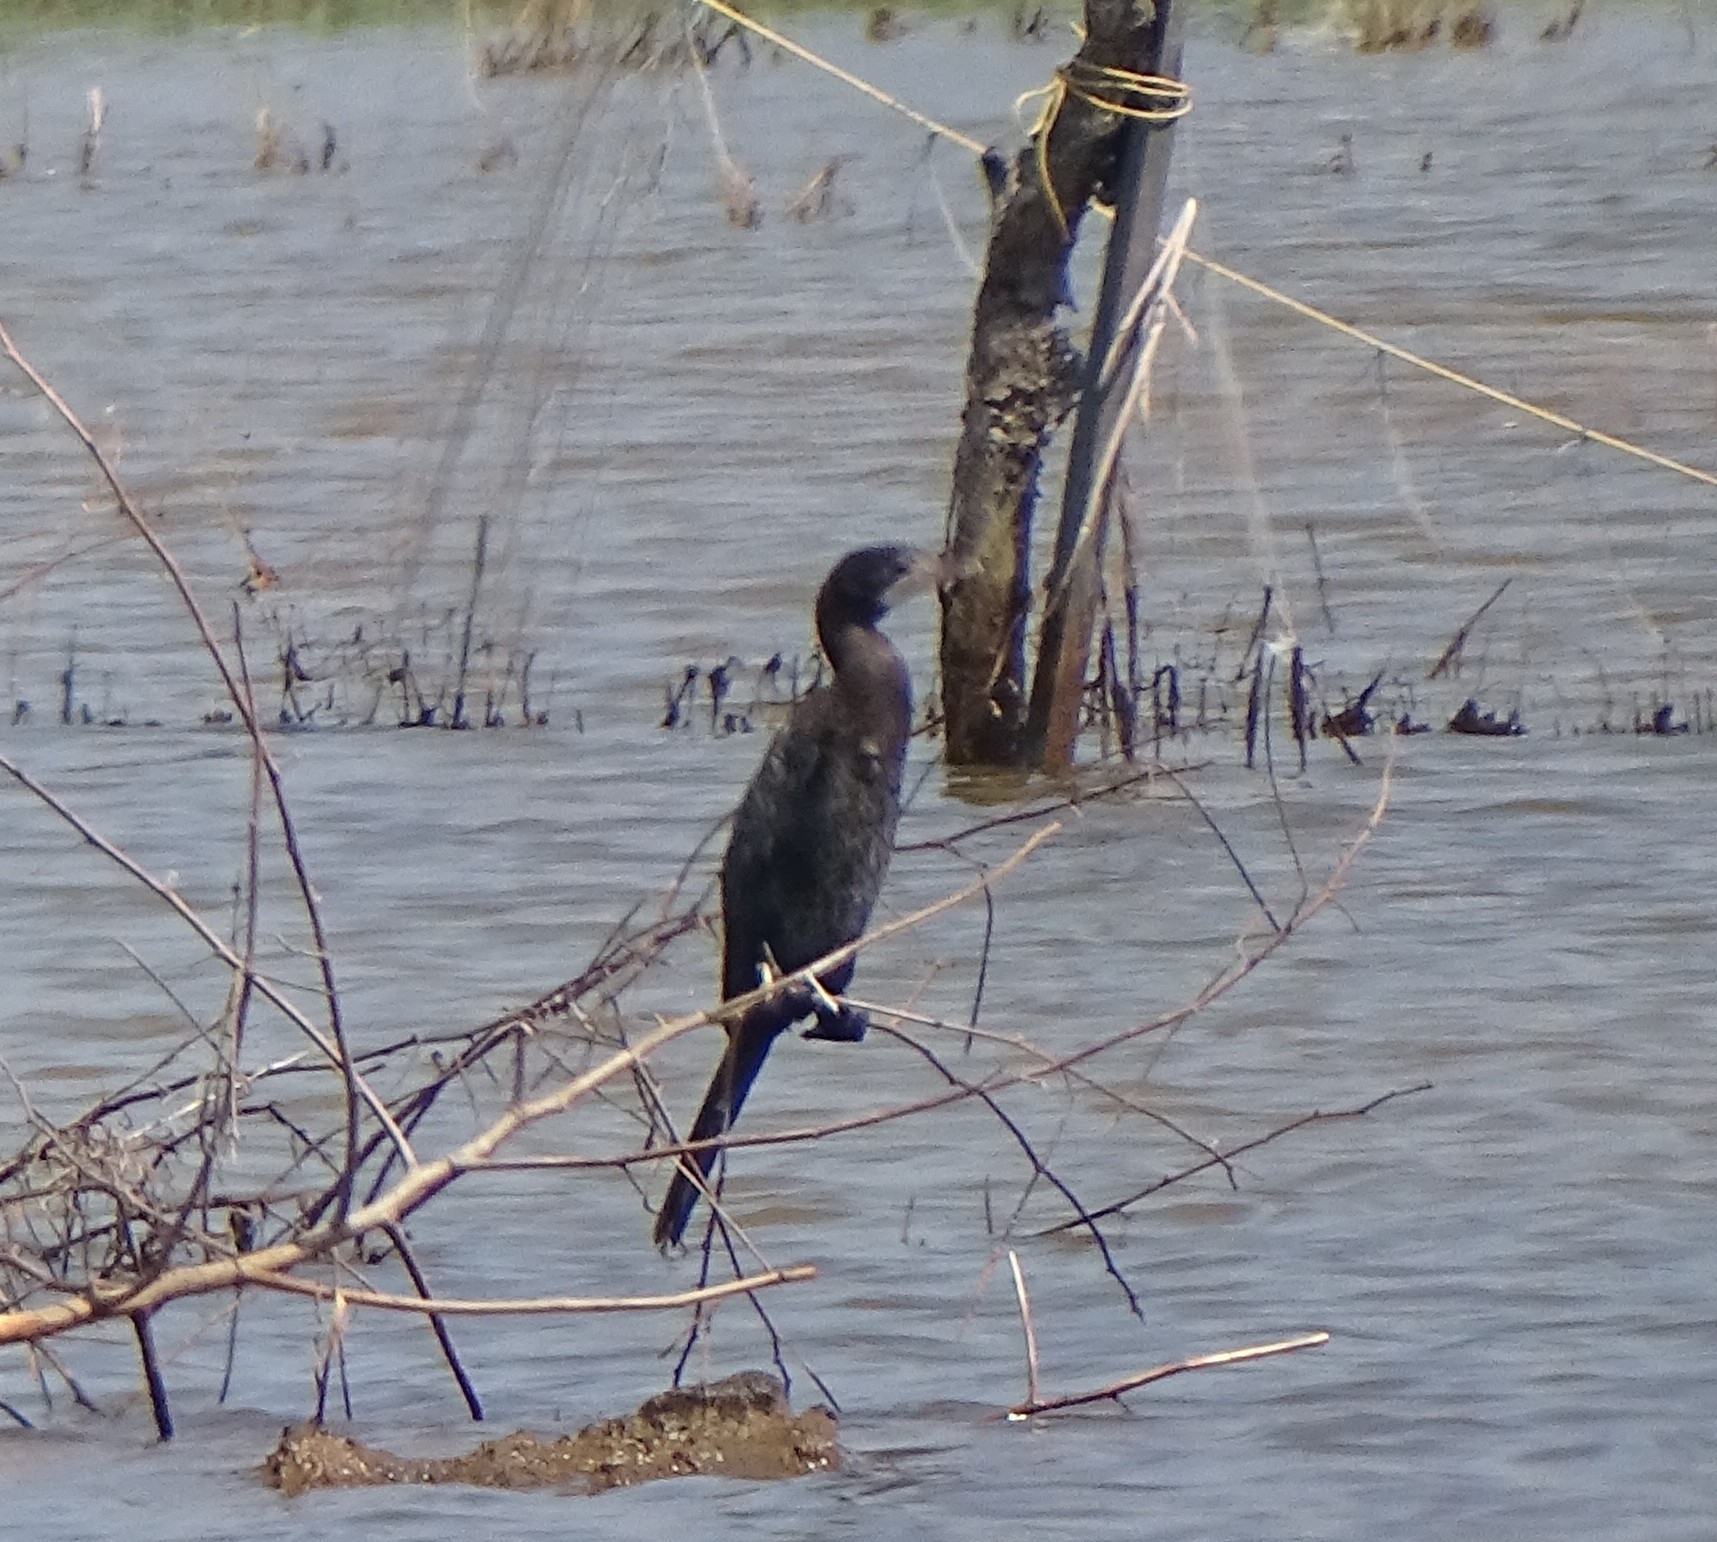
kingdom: Animalia
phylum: Chordata
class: Aves
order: Suliformes
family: Phalacrocoracidae
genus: Microcarbo
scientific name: Microcarbo niger
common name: Little cormorant
